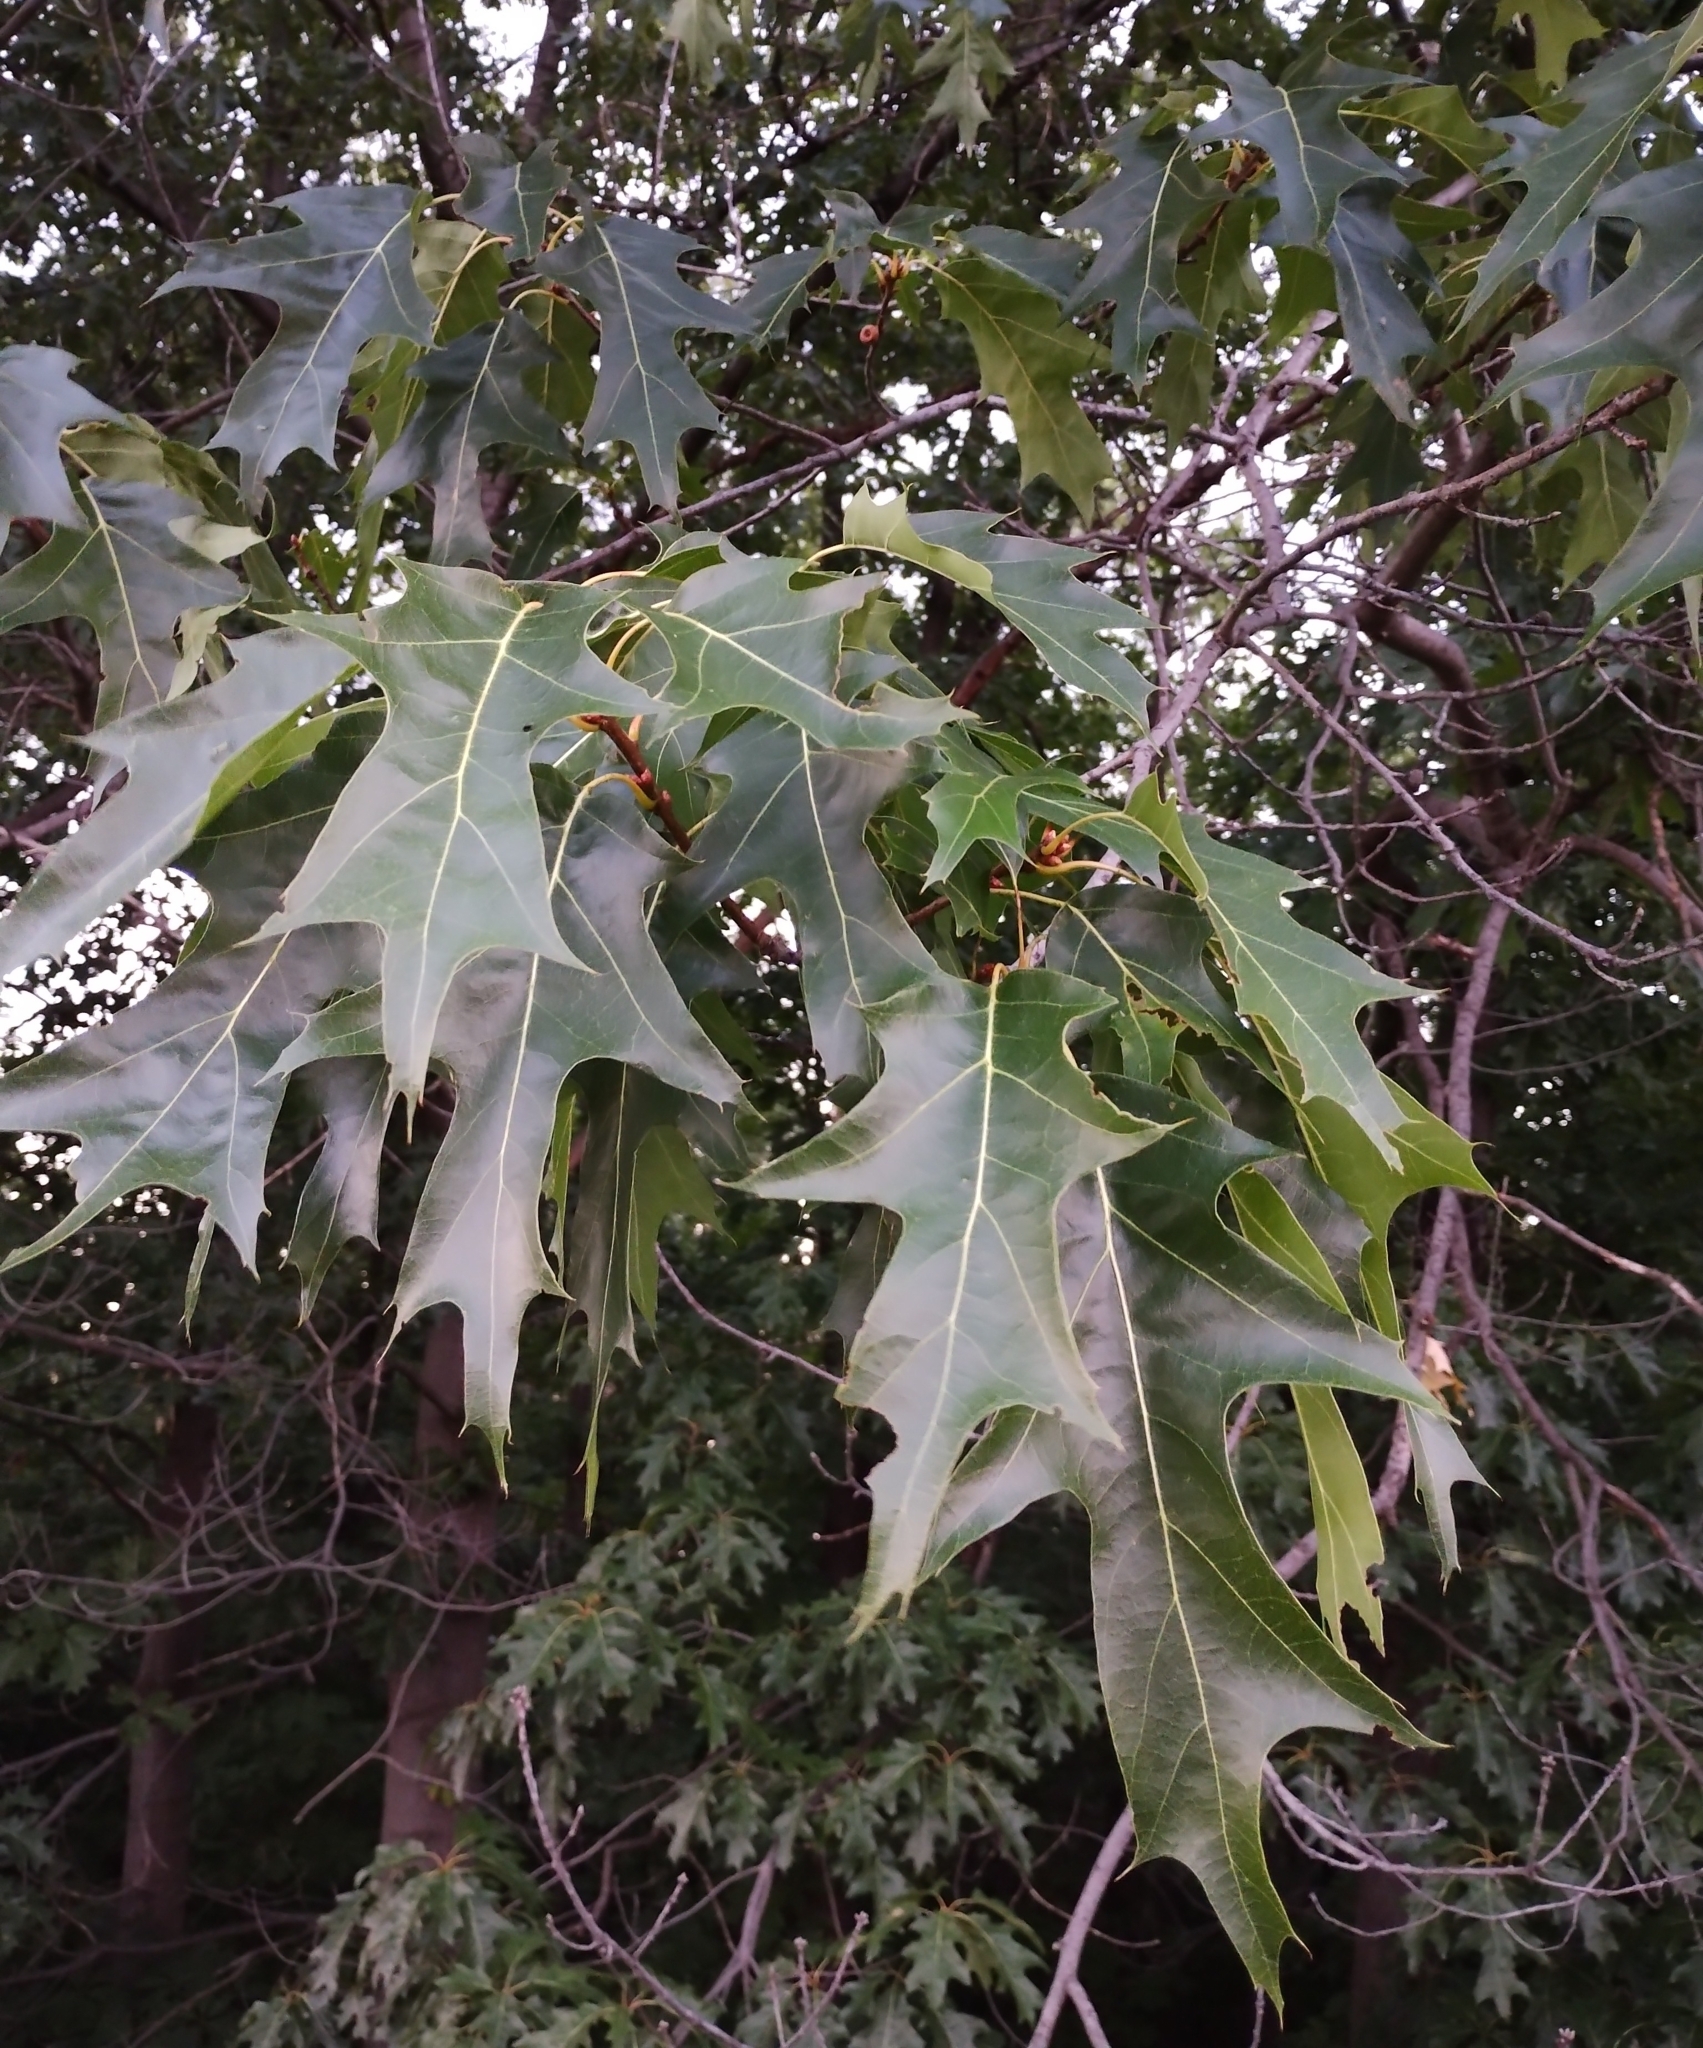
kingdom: Plantae
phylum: Tracheophyta
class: Magnoliopsida
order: Fagales
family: Fagaceae
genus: Quercus
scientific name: Quercus rubra
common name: Red oak
